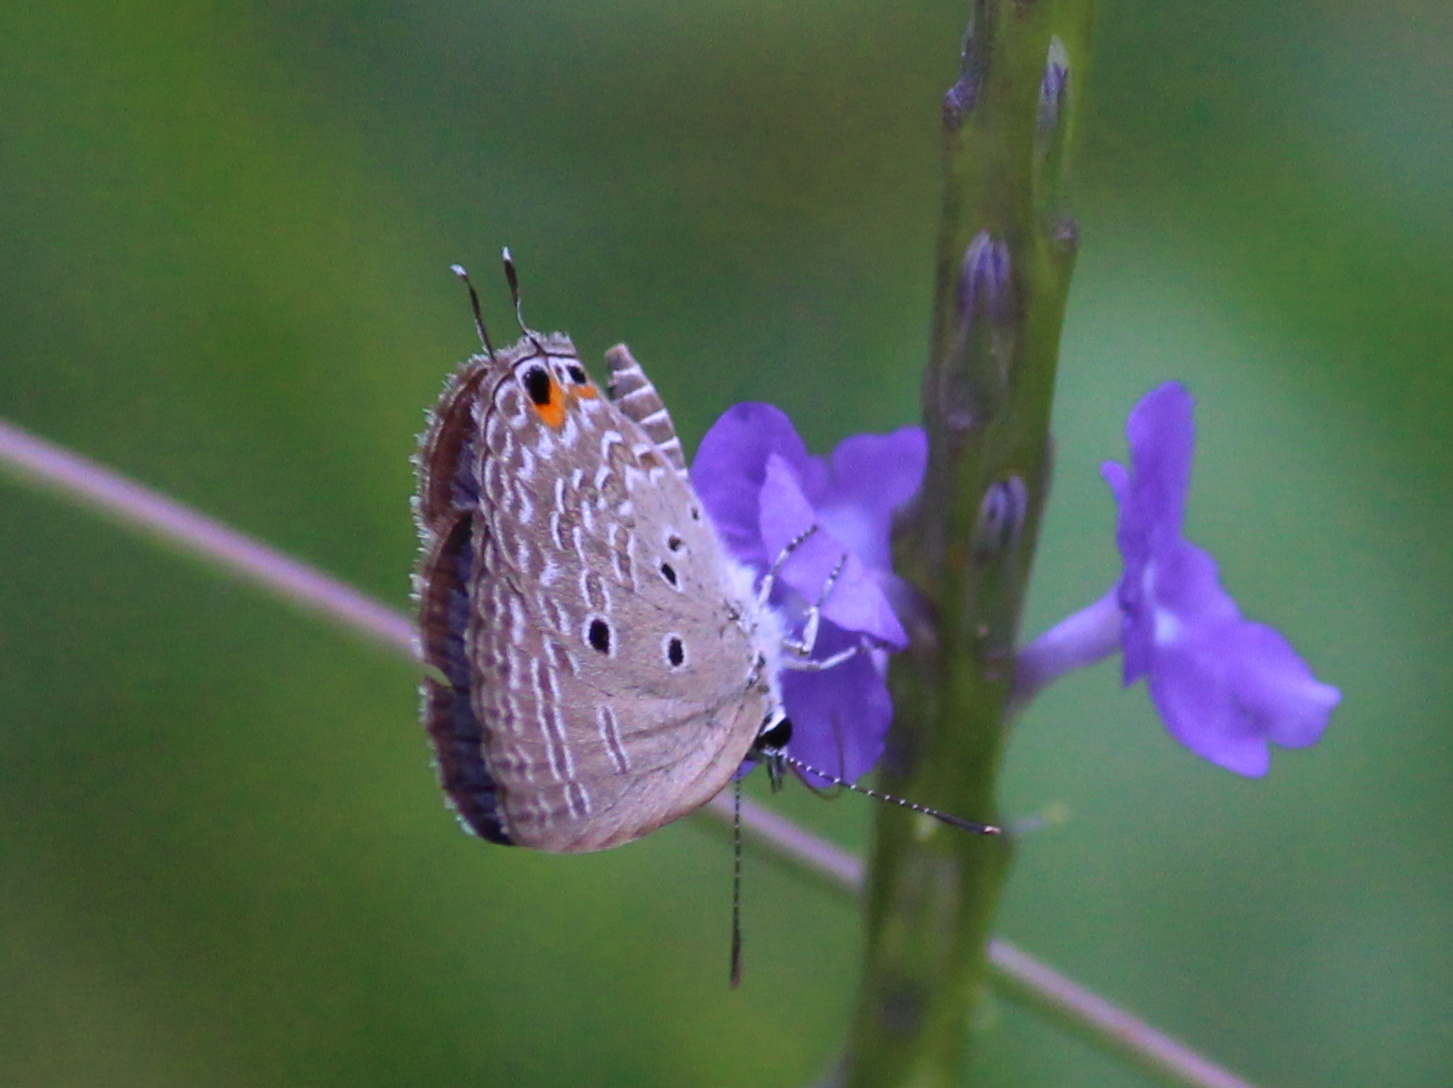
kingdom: Animalia
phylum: Arthropoda
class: Insecta
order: Lepidoptera
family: Lycaenidae
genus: Luthrodes
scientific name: Luthrodes pandava
